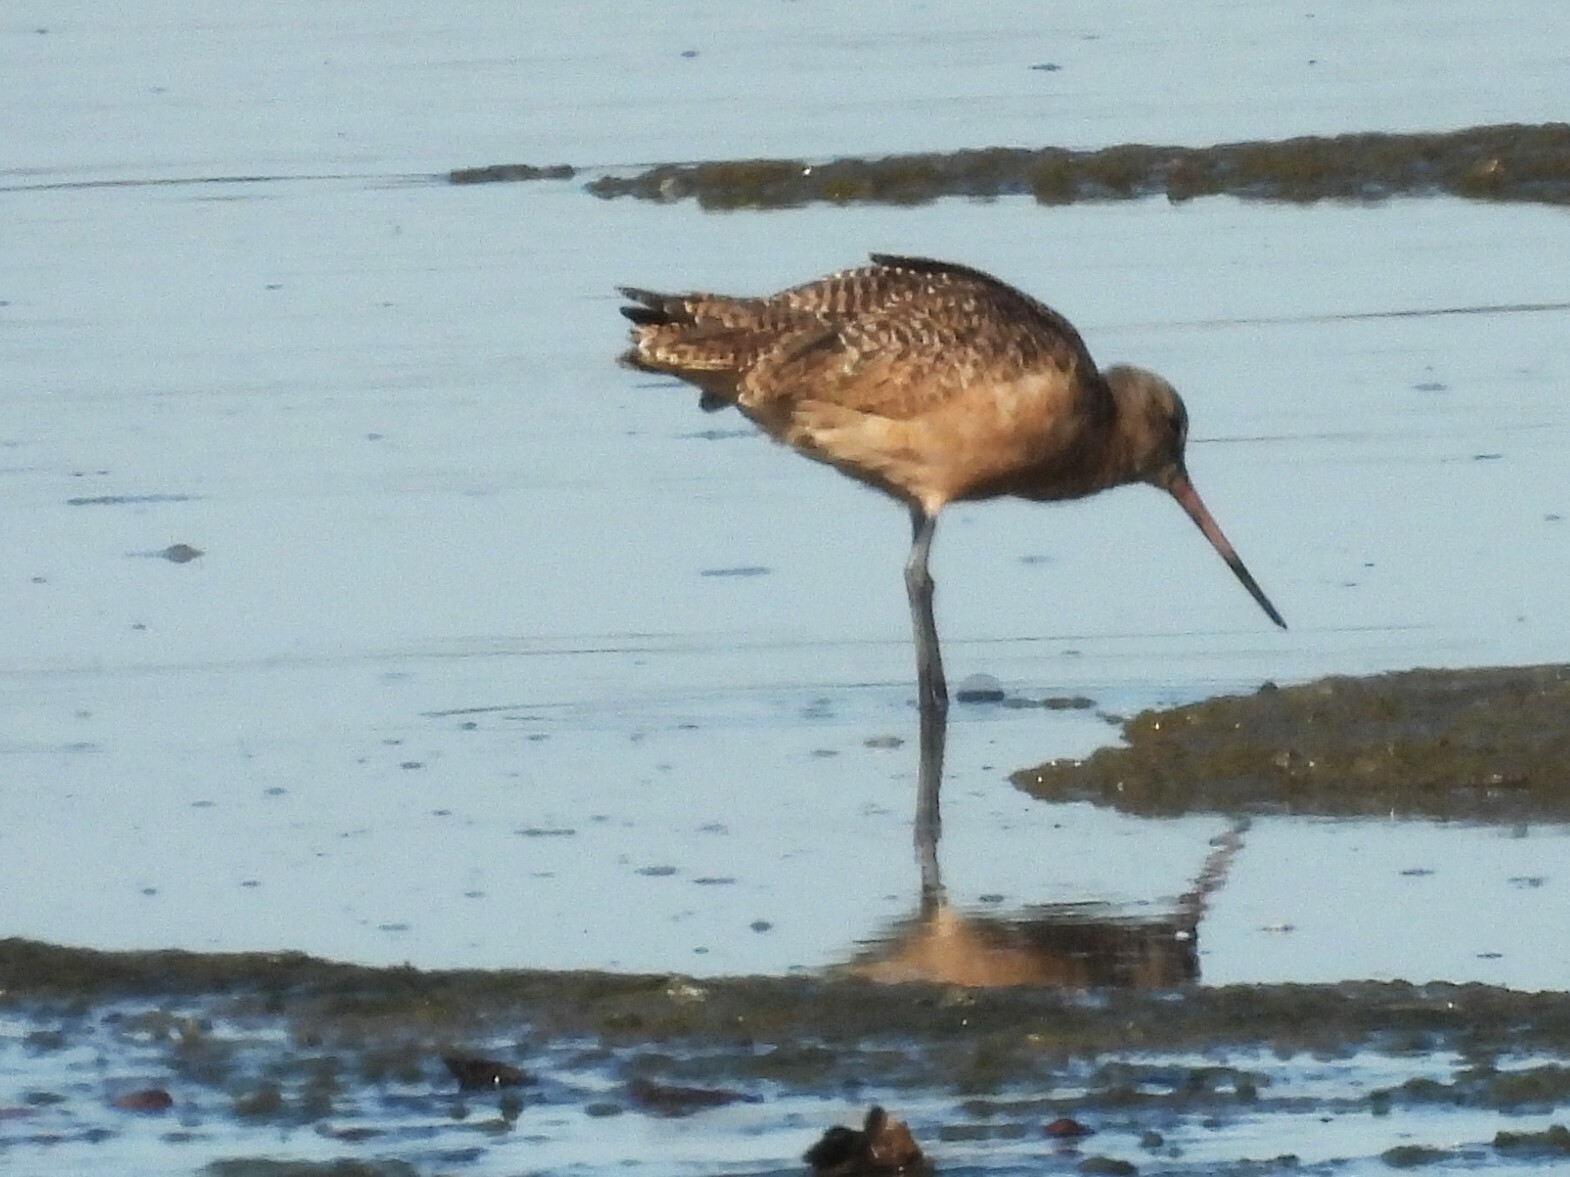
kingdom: Animalia
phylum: Chordata
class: Aves
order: Charadriiformes
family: Scolopacidae
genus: Limosa
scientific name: Limosa fedoa
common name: Marbled godwit
